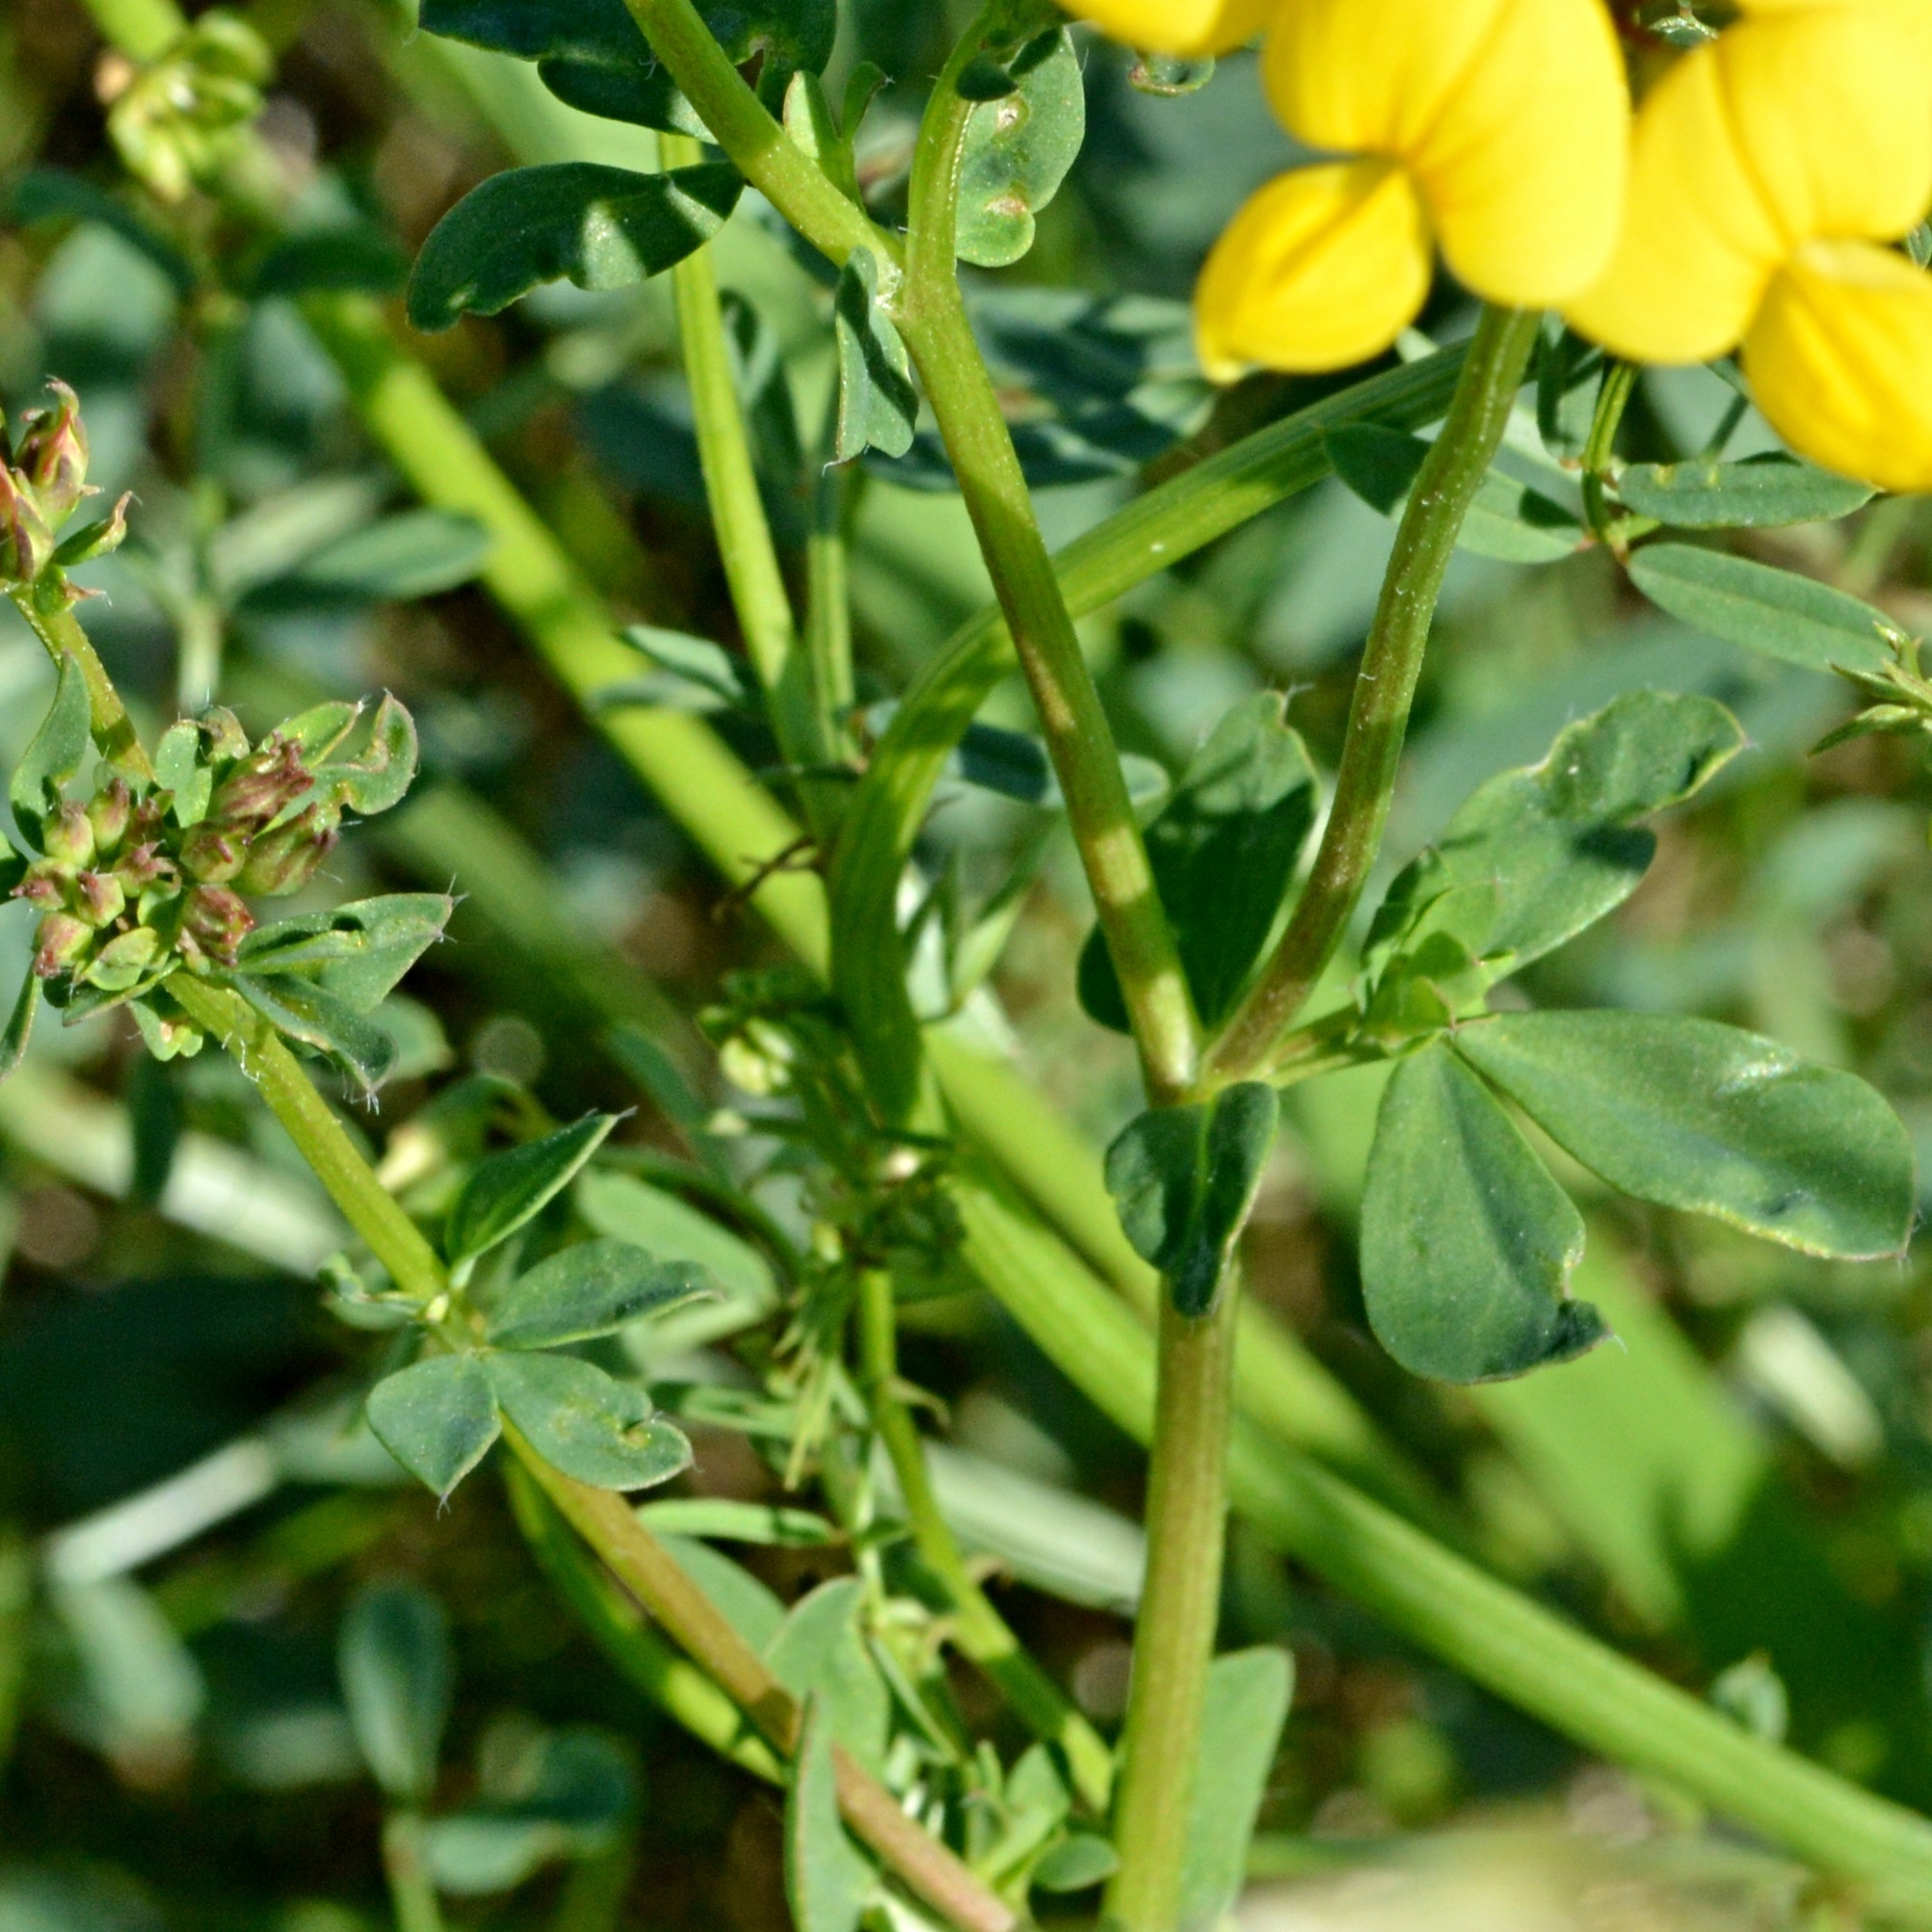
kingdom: Plantae
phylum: Tracheophyta
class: Magnoliopsida
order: Fabales
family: Fabaceae
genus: Lotus
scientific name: Lotus corniculatus
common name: Common bird's-foot-trefoil
